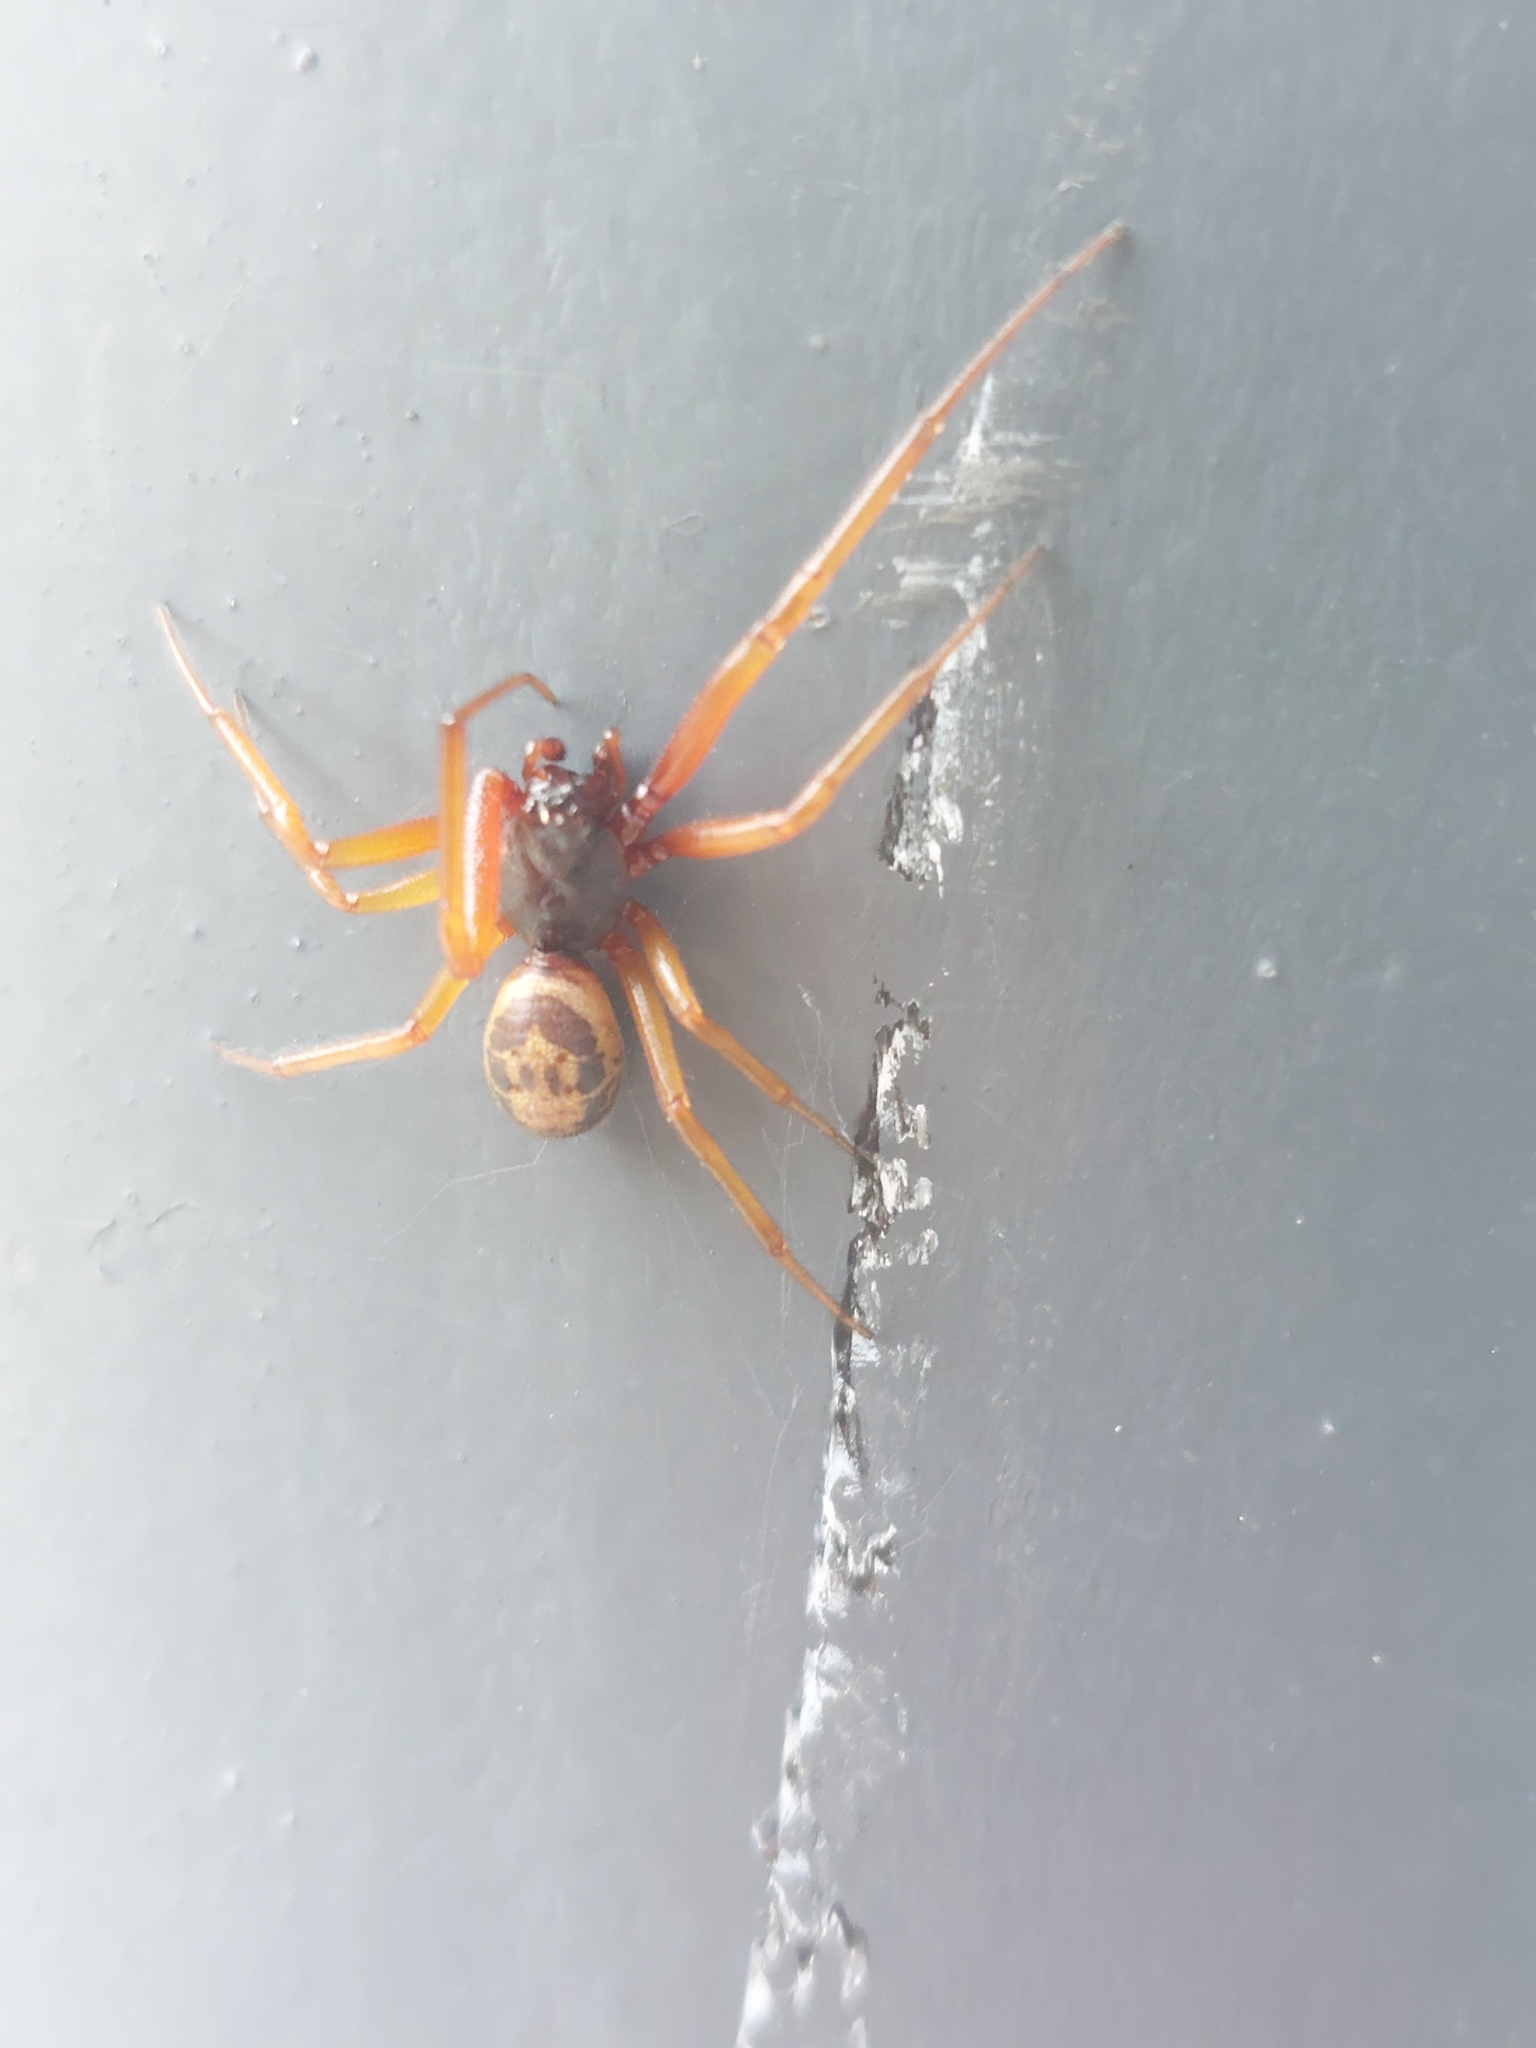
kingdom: Animalia
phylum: Arthropoda
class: Arachnida
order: Araneae
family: Theridiidae
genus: Steatoda
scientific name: Steatoda nobilis
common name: Cobweb weaver
